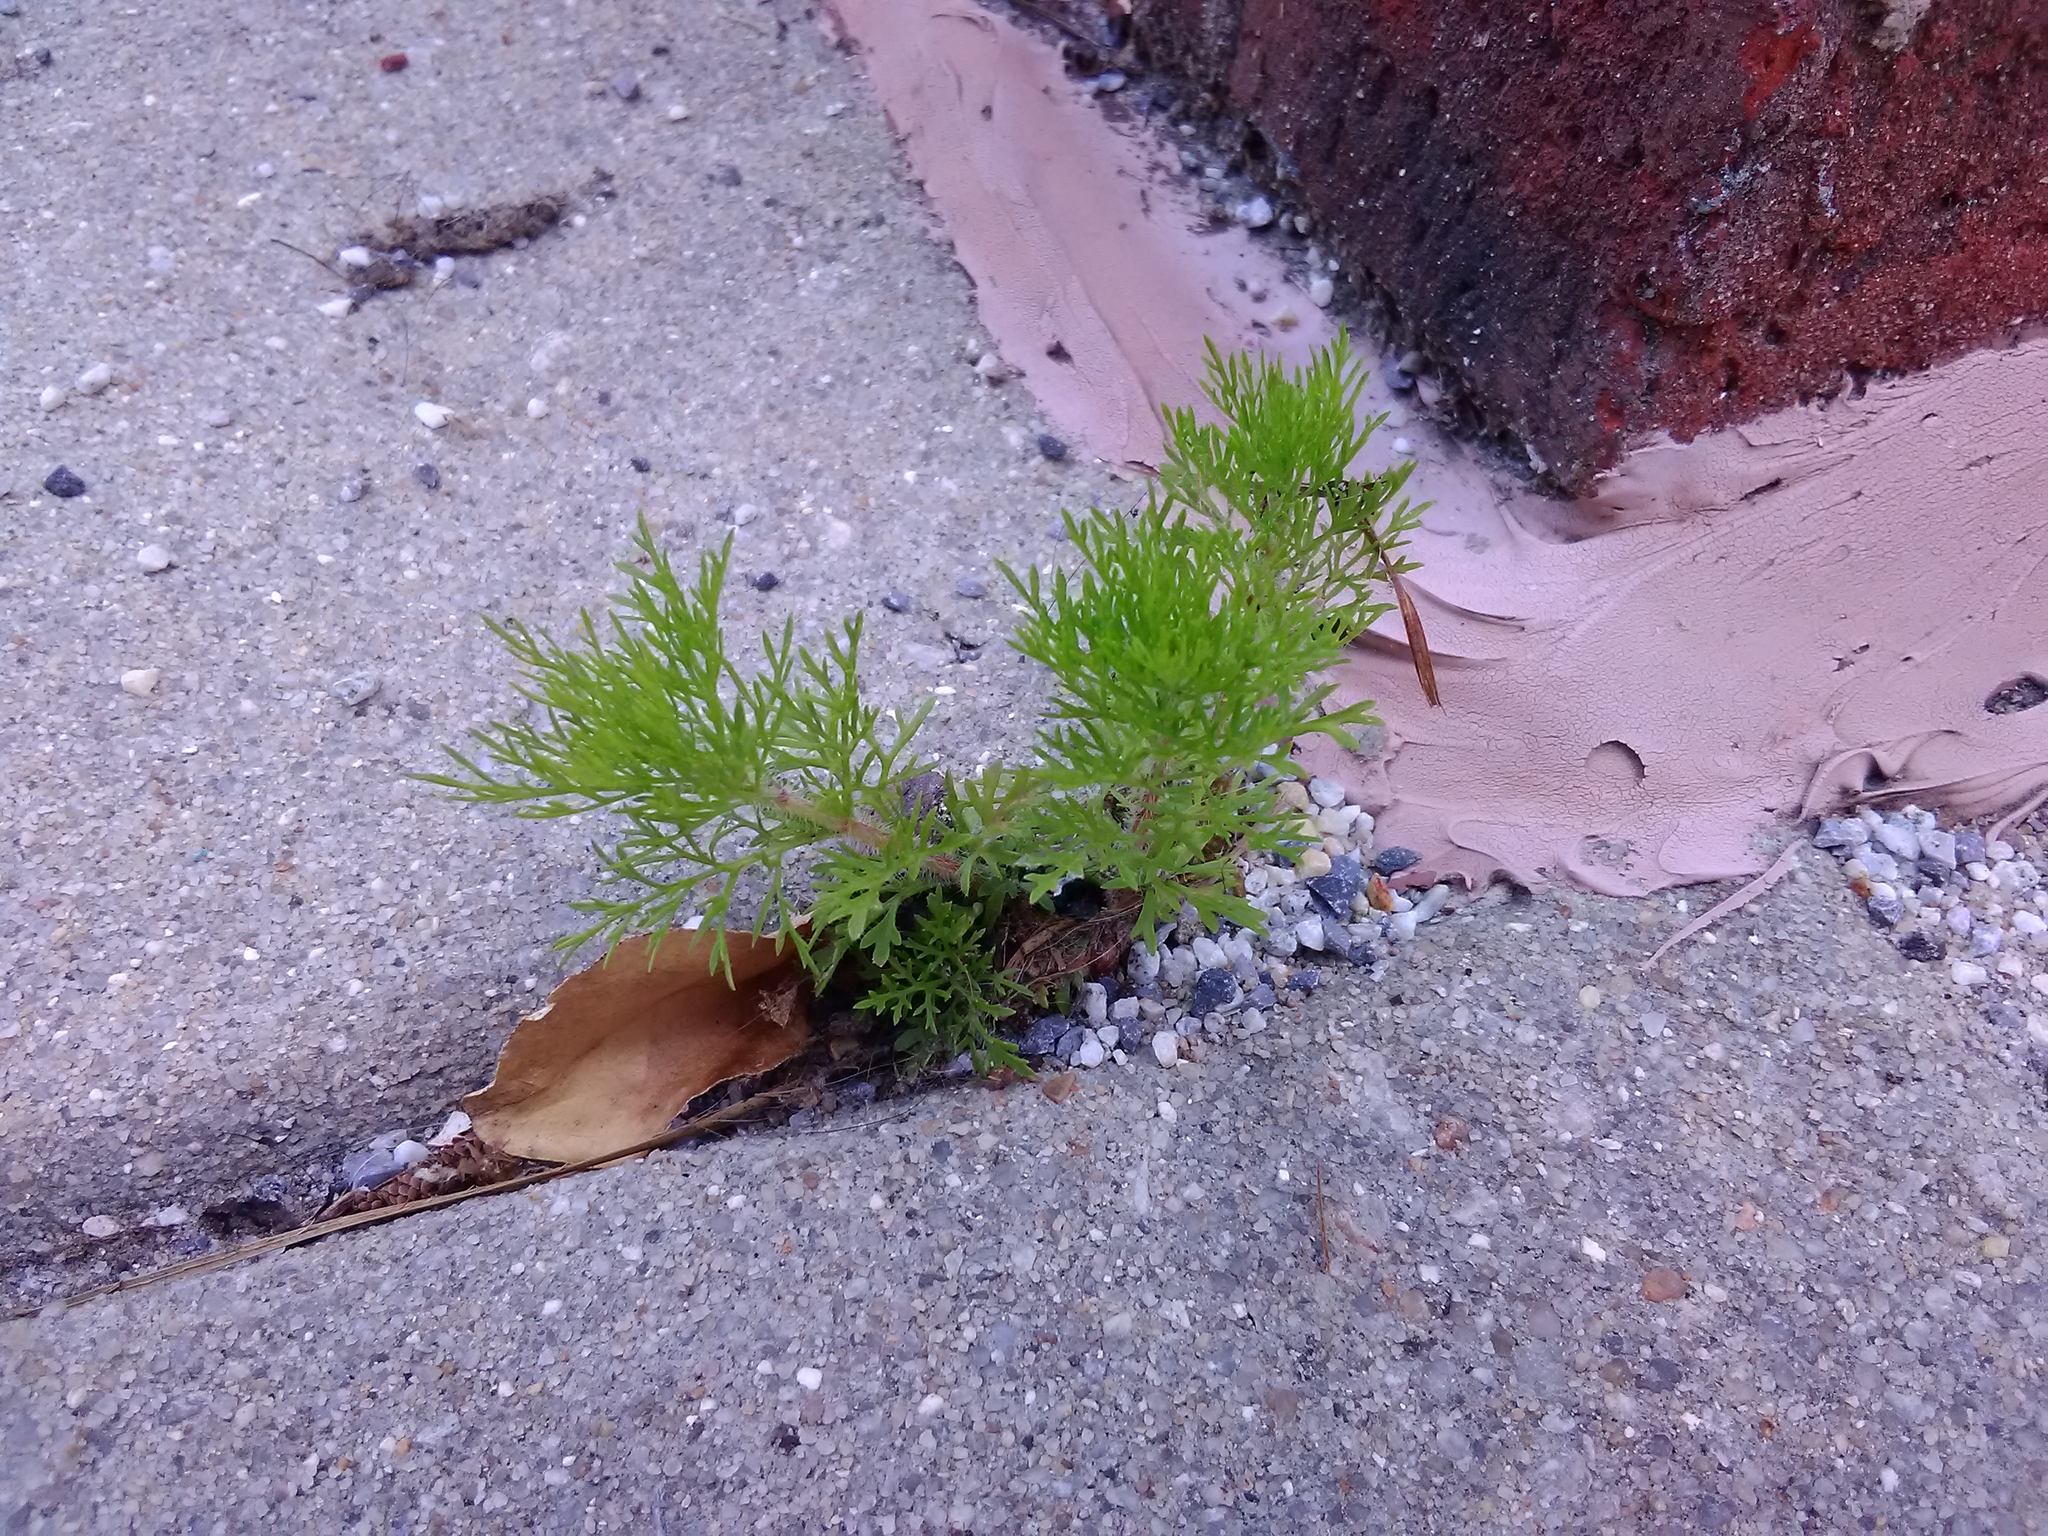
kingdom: Plantae
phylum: Tracheophyta
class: Magnoliopsida
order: Asterales
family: Asteraceae
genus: Eupatorium
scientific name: Eupatorium capillifolium
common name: Dog-fennel
